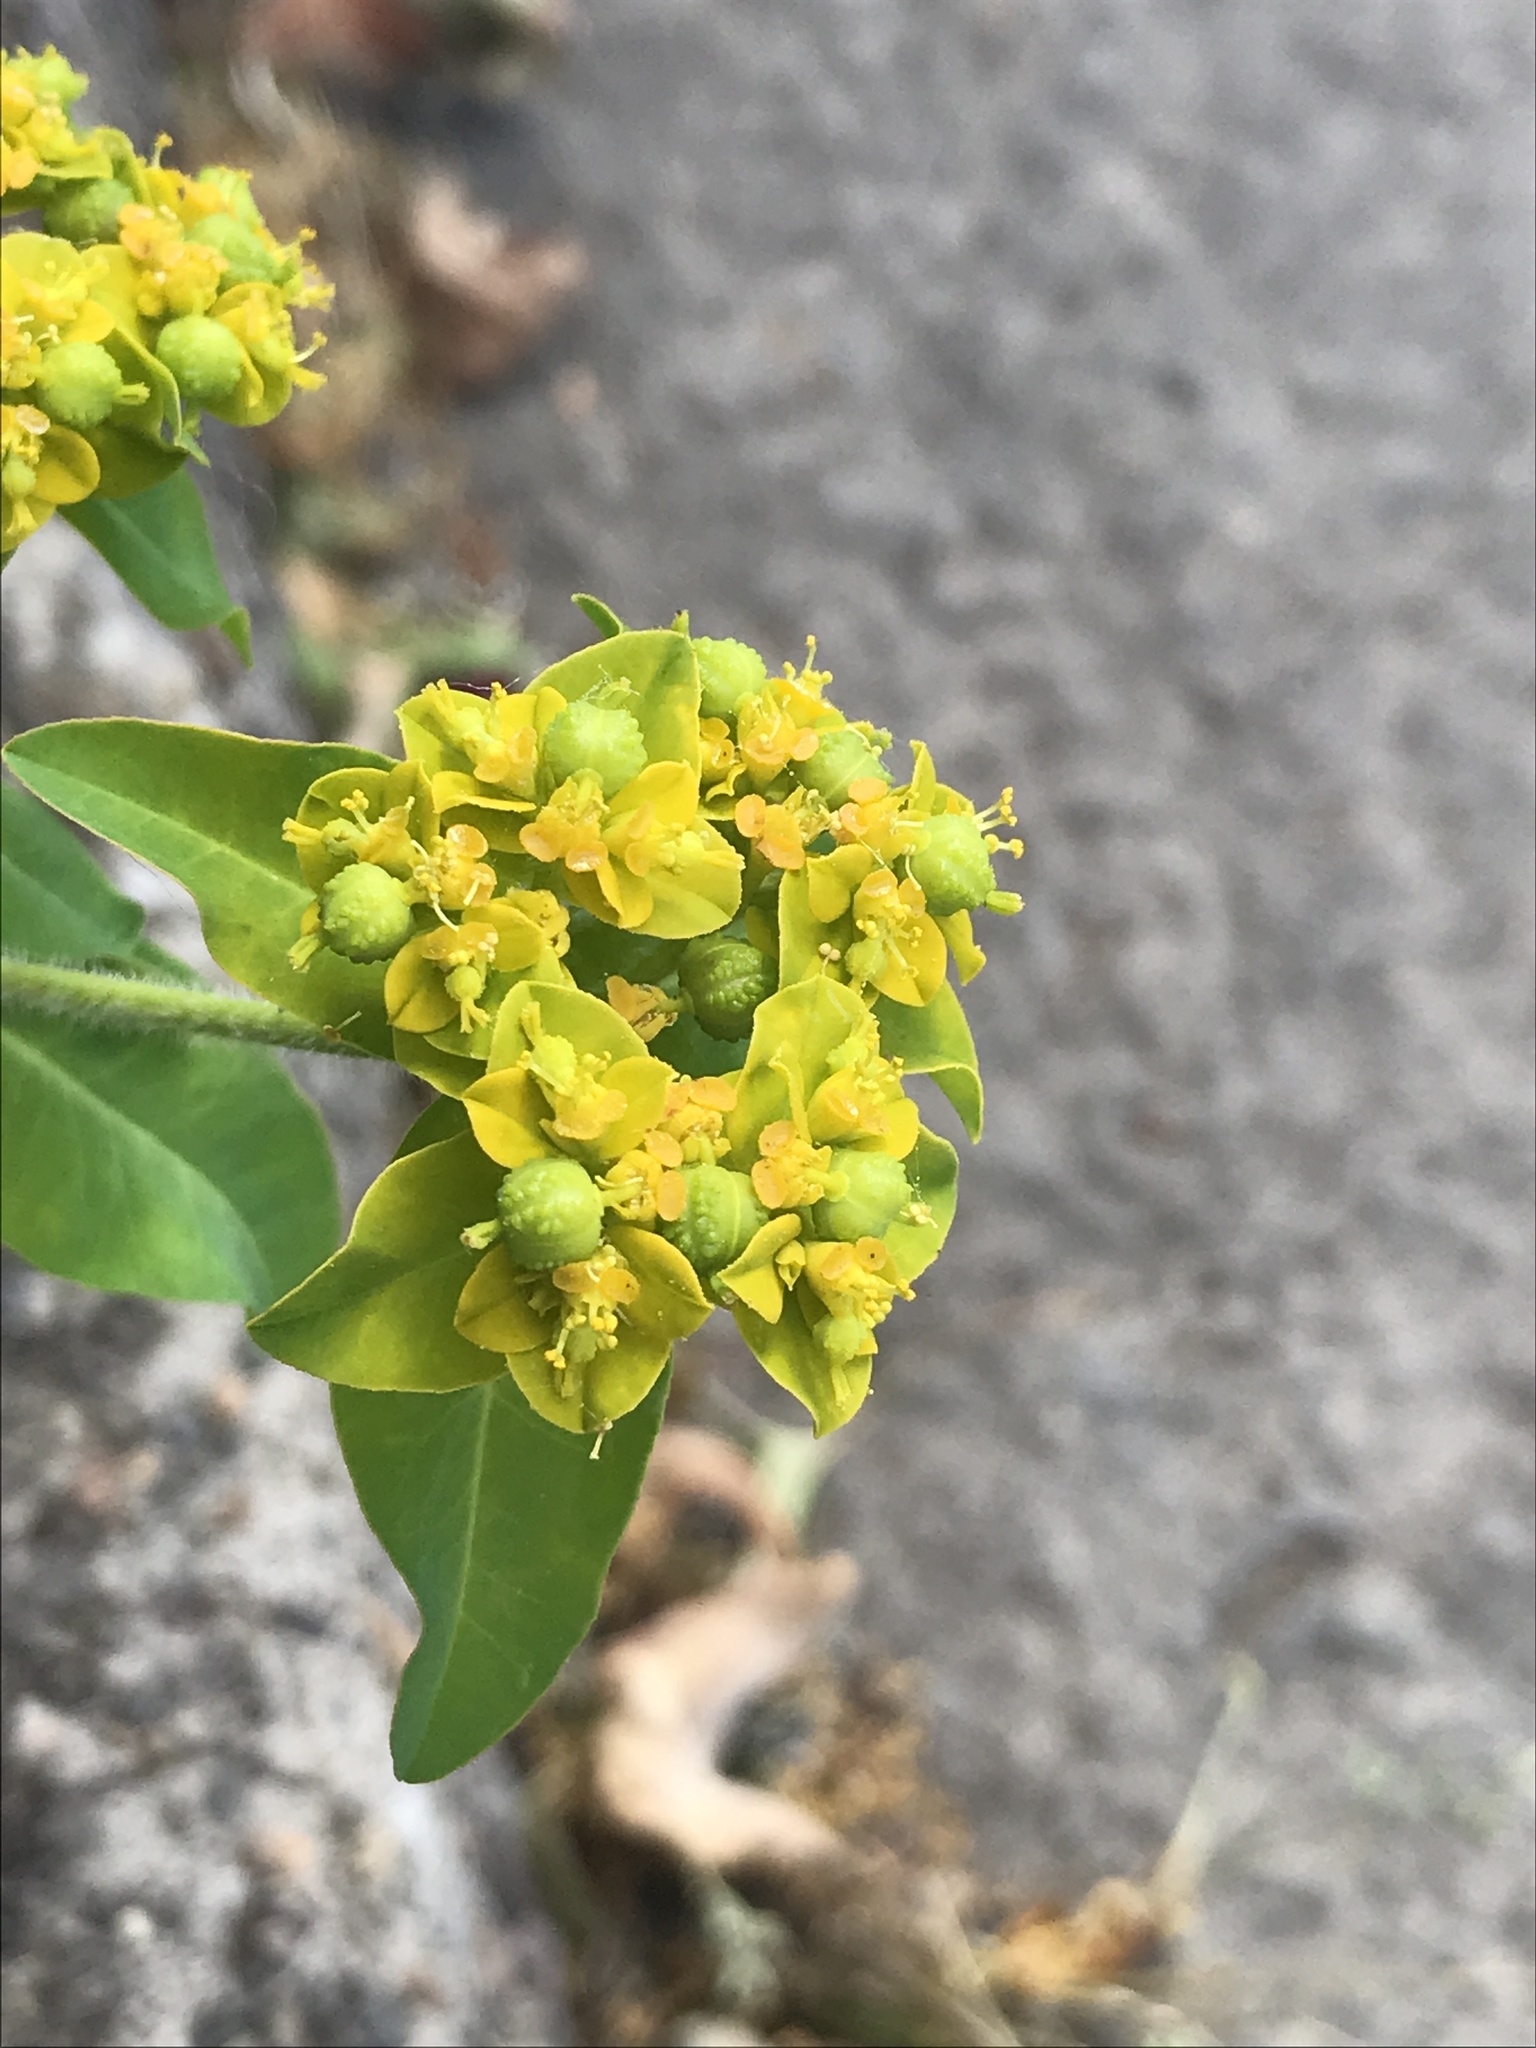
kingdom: Plantae
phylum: Tracheophyta
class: Magnoliopsida
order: Malpighiales
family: Euphorbiaceae
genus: Euphorbia
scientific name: Euphorbia oblongata
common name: Balkan spurge
